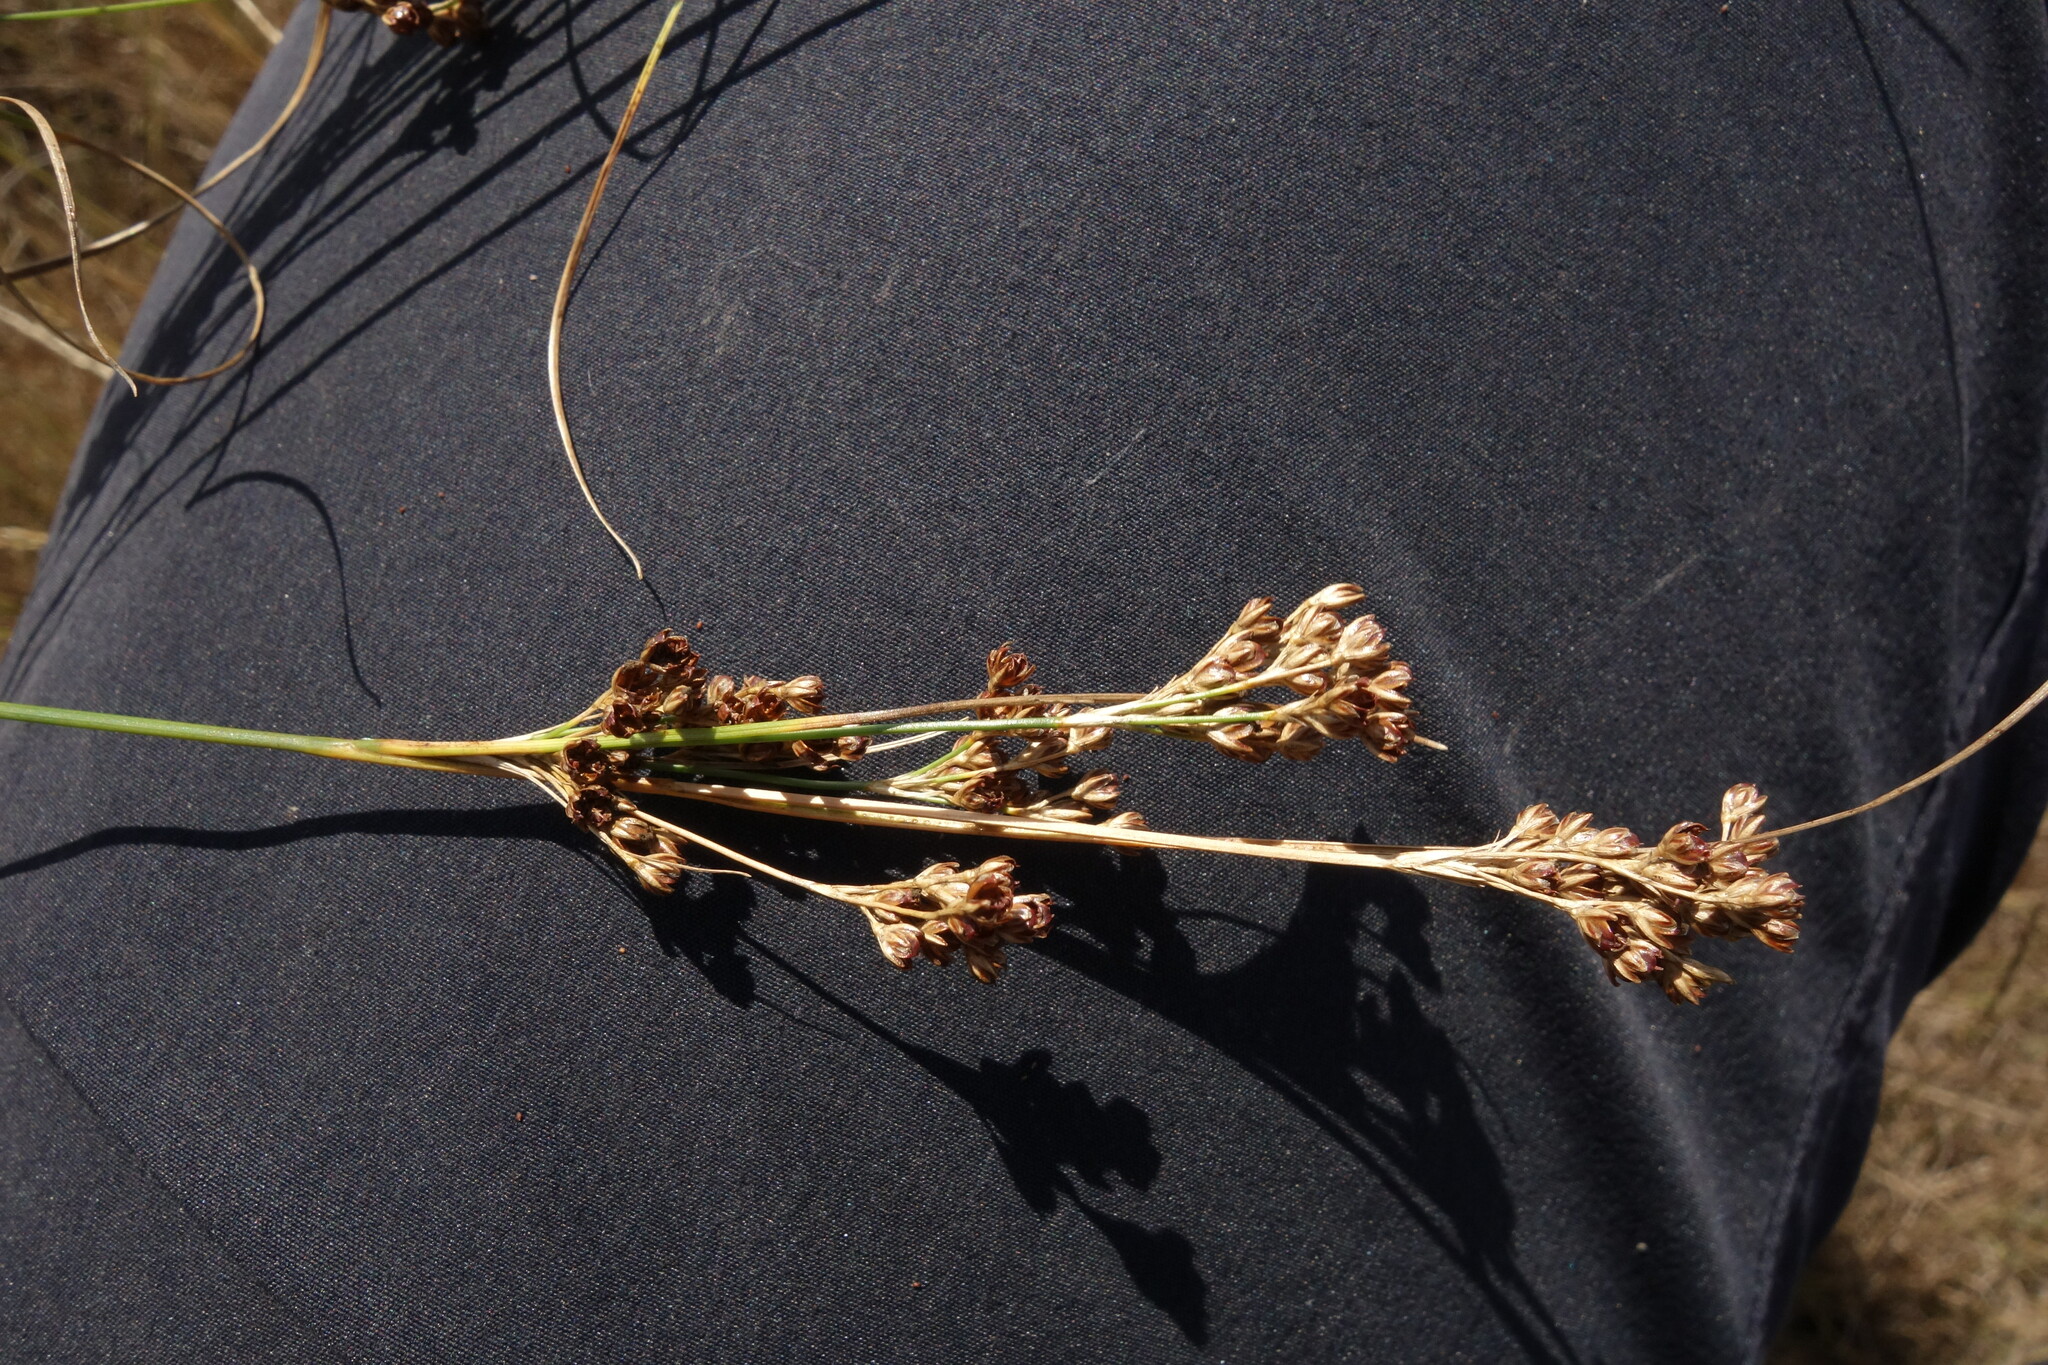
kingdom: Plantae
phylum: Tracheophyta
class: Liliopsida
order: Poales
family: Juncaceae
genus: Juncus
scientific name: Juncus compressus
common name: Round-fruited rush
